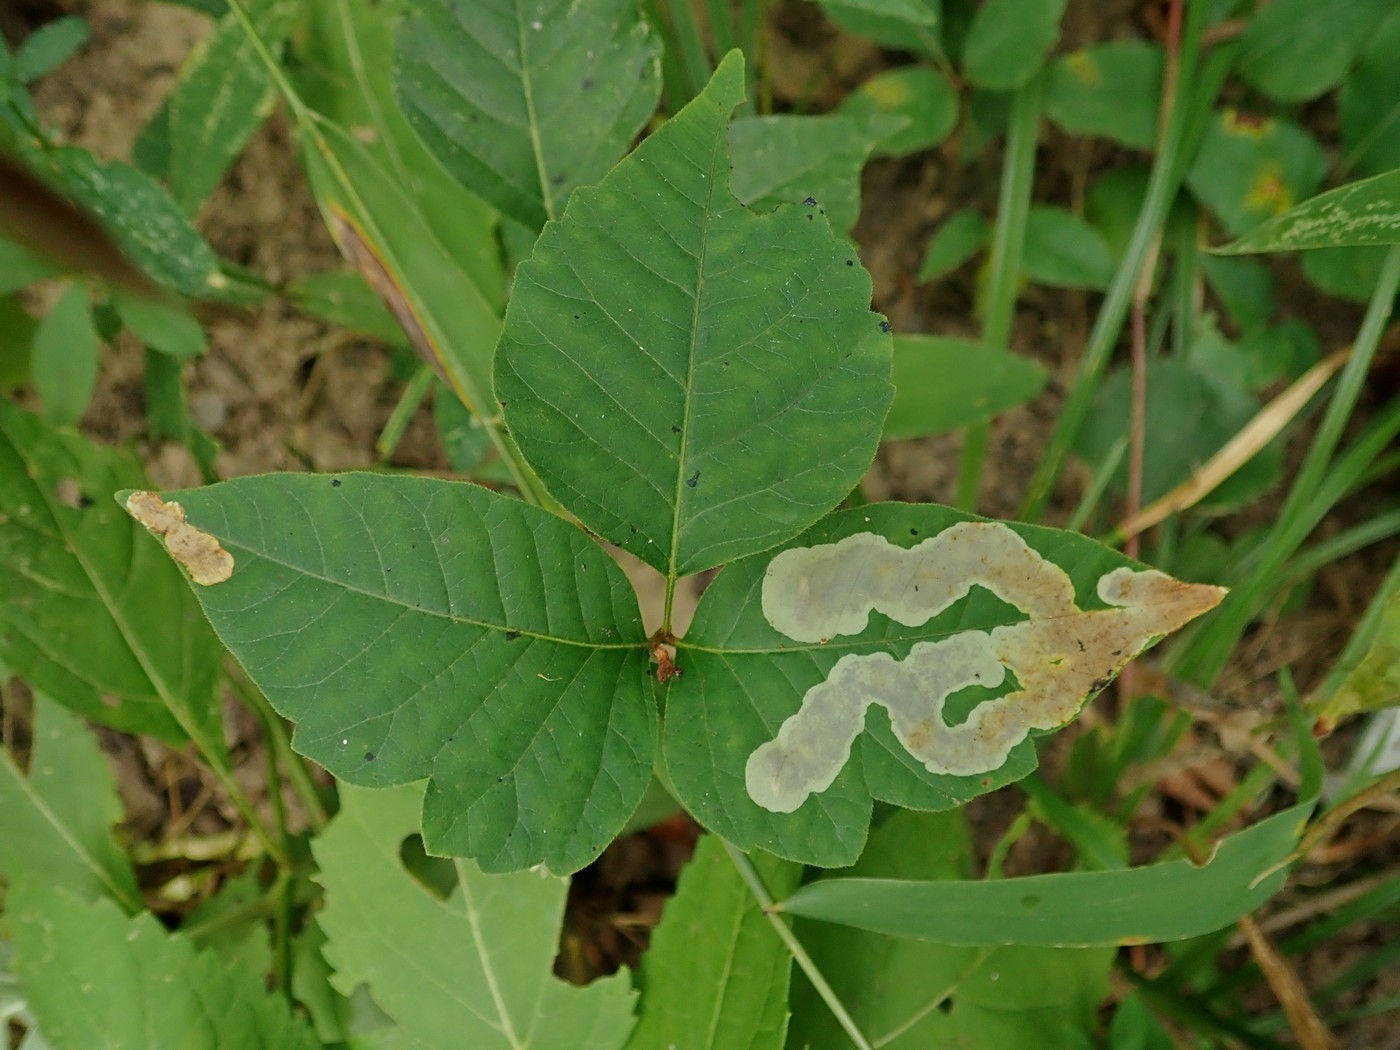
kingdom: Animalia
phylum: Arthropoda
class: Insecta
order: Lepidoptera
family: Gracillariidae
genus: Cameraria
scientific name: Cameraria guttifinitella
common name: Poison ivy leaf-miner moth
